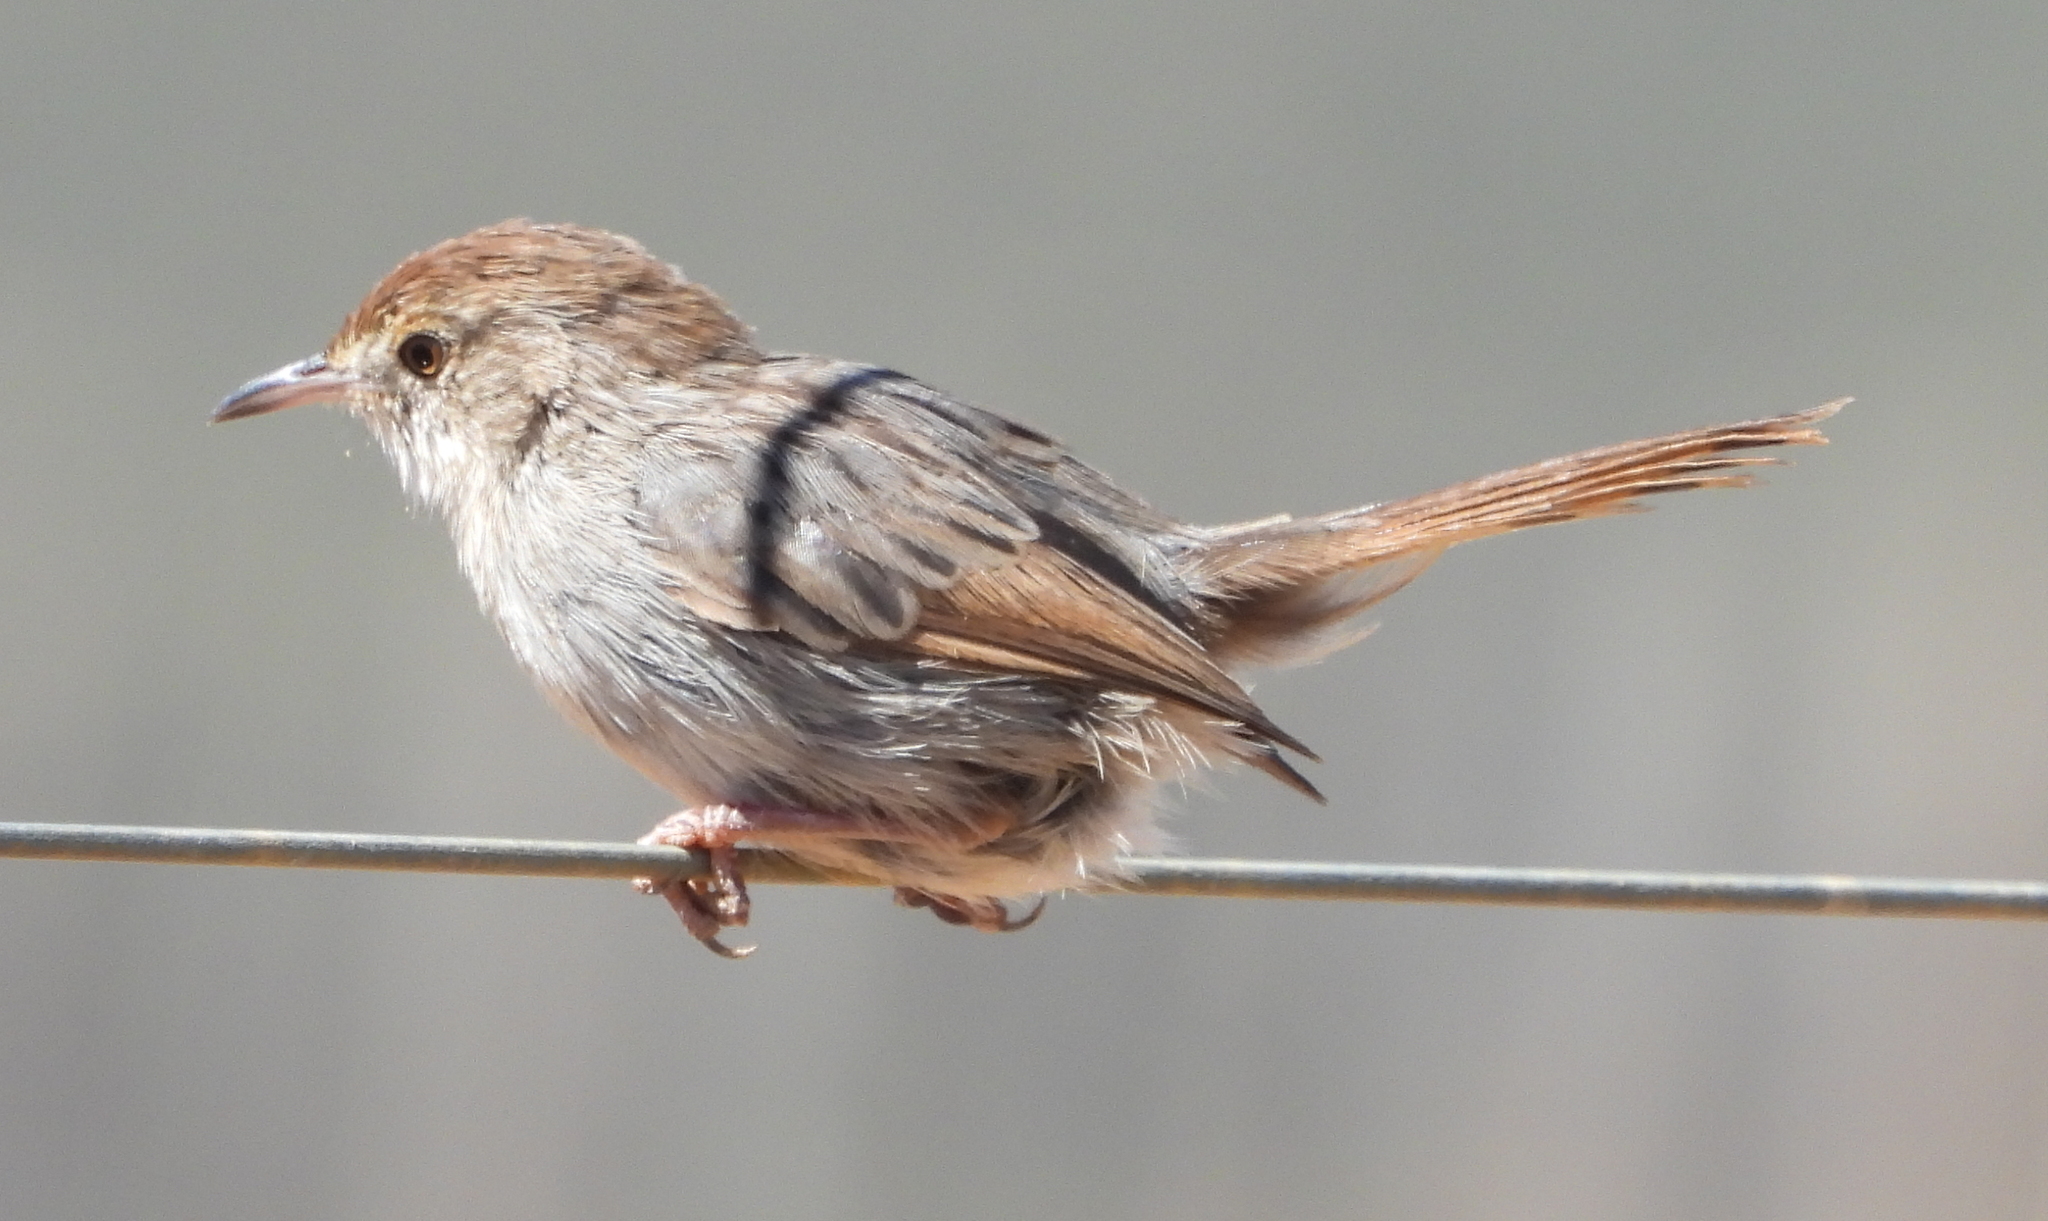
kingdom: Animalia
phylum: Chordata
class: Aves
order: Passeriformes
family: Cisticolidae
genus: Cisticola
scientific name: Cisticola subruficapilla
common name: Grey-backed cisticola
